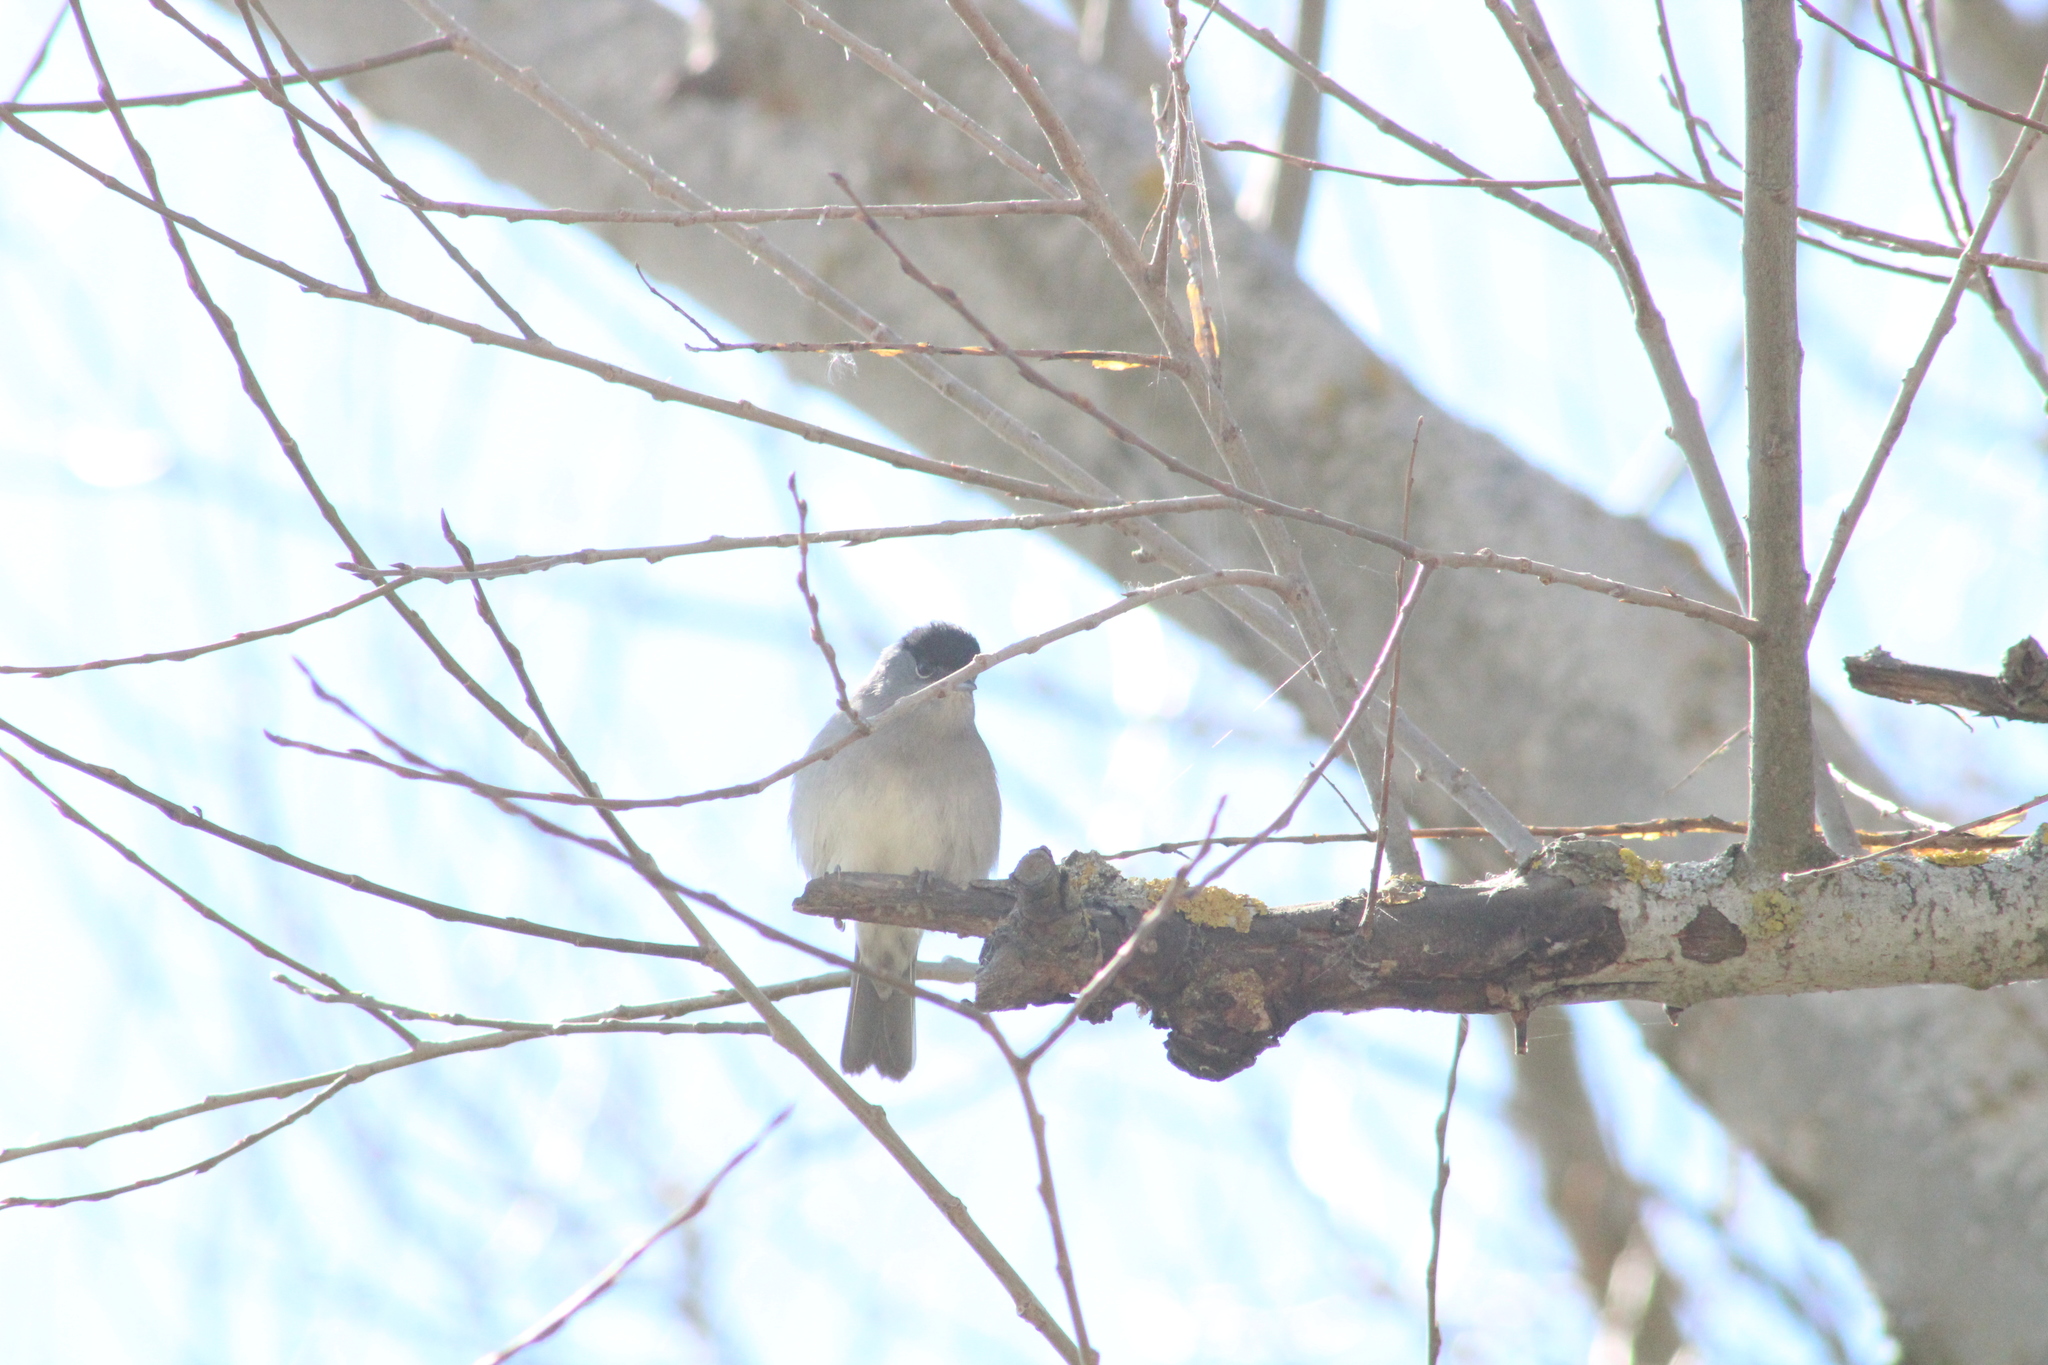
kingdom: Animalia
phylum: Chordata
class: Aves
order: Passeriformes
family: Sylviidae
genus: Sylvia
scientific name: Sylvia atricapilla
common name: Eurasian blackcap
